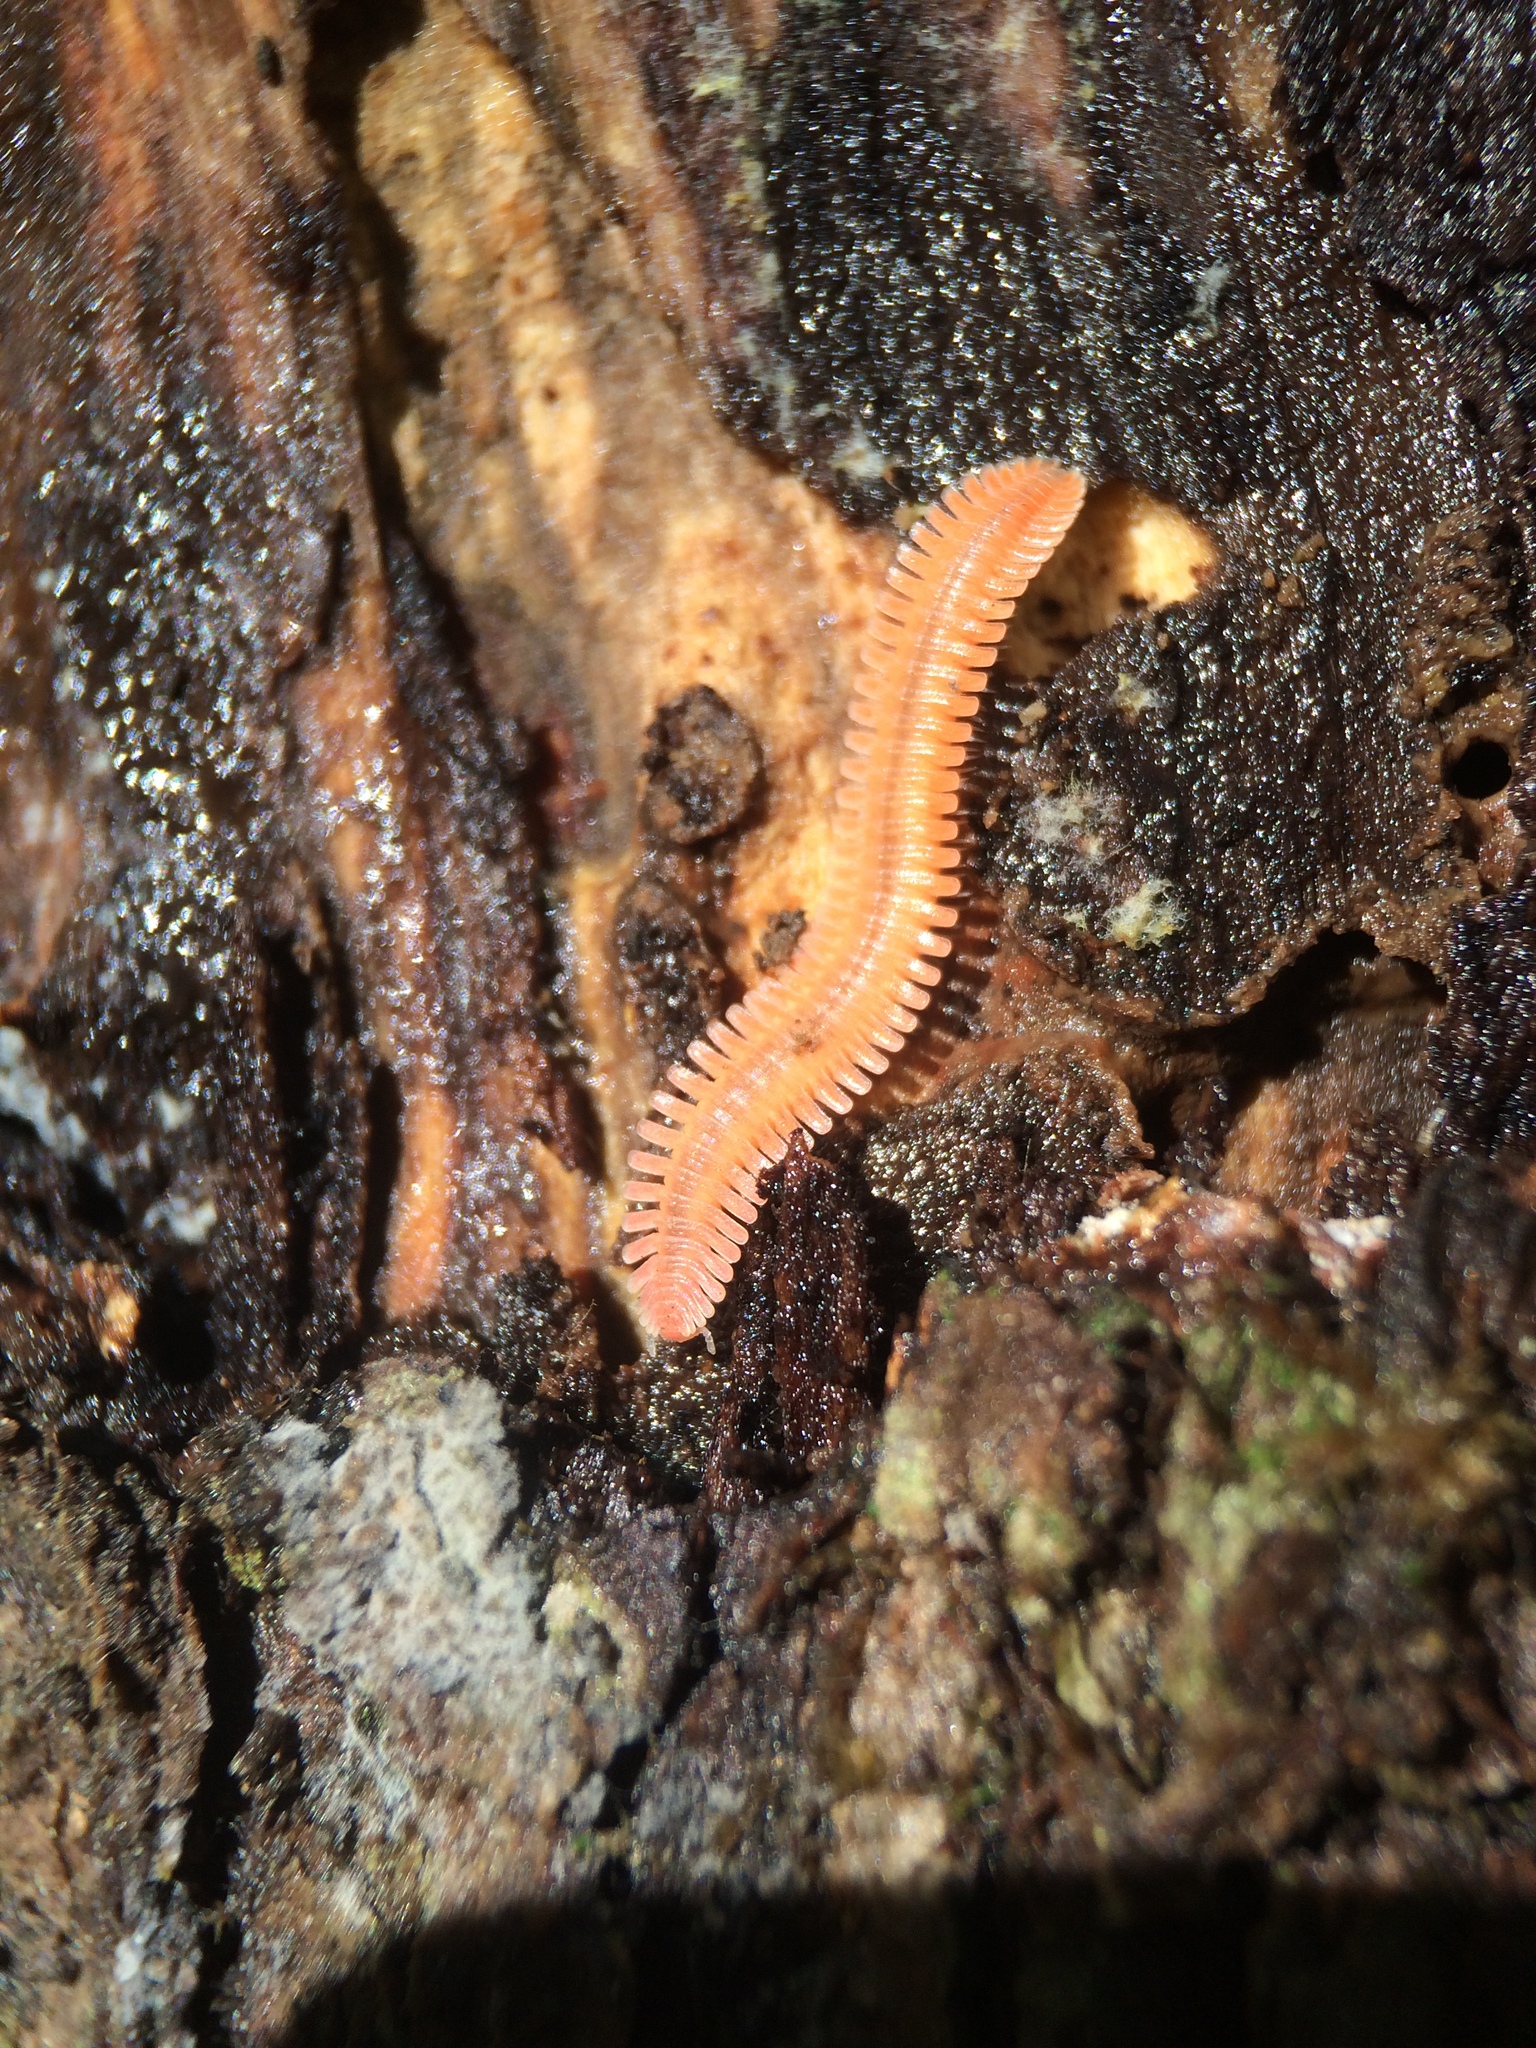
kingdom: Animalia
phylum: Arthropoda
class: Diplopoda
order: Platydesmida
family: Andrognathidae
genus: Brachycybe
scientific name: Brachycybe lecontii
